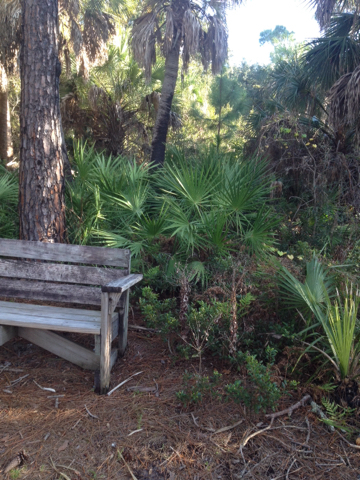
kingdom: Plantae
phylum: Tracheophyta
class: Liliopsida
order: Arecales
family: Arecaceae
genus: Serenoa
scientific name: Serenoa repens
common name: Saw-palmetto
